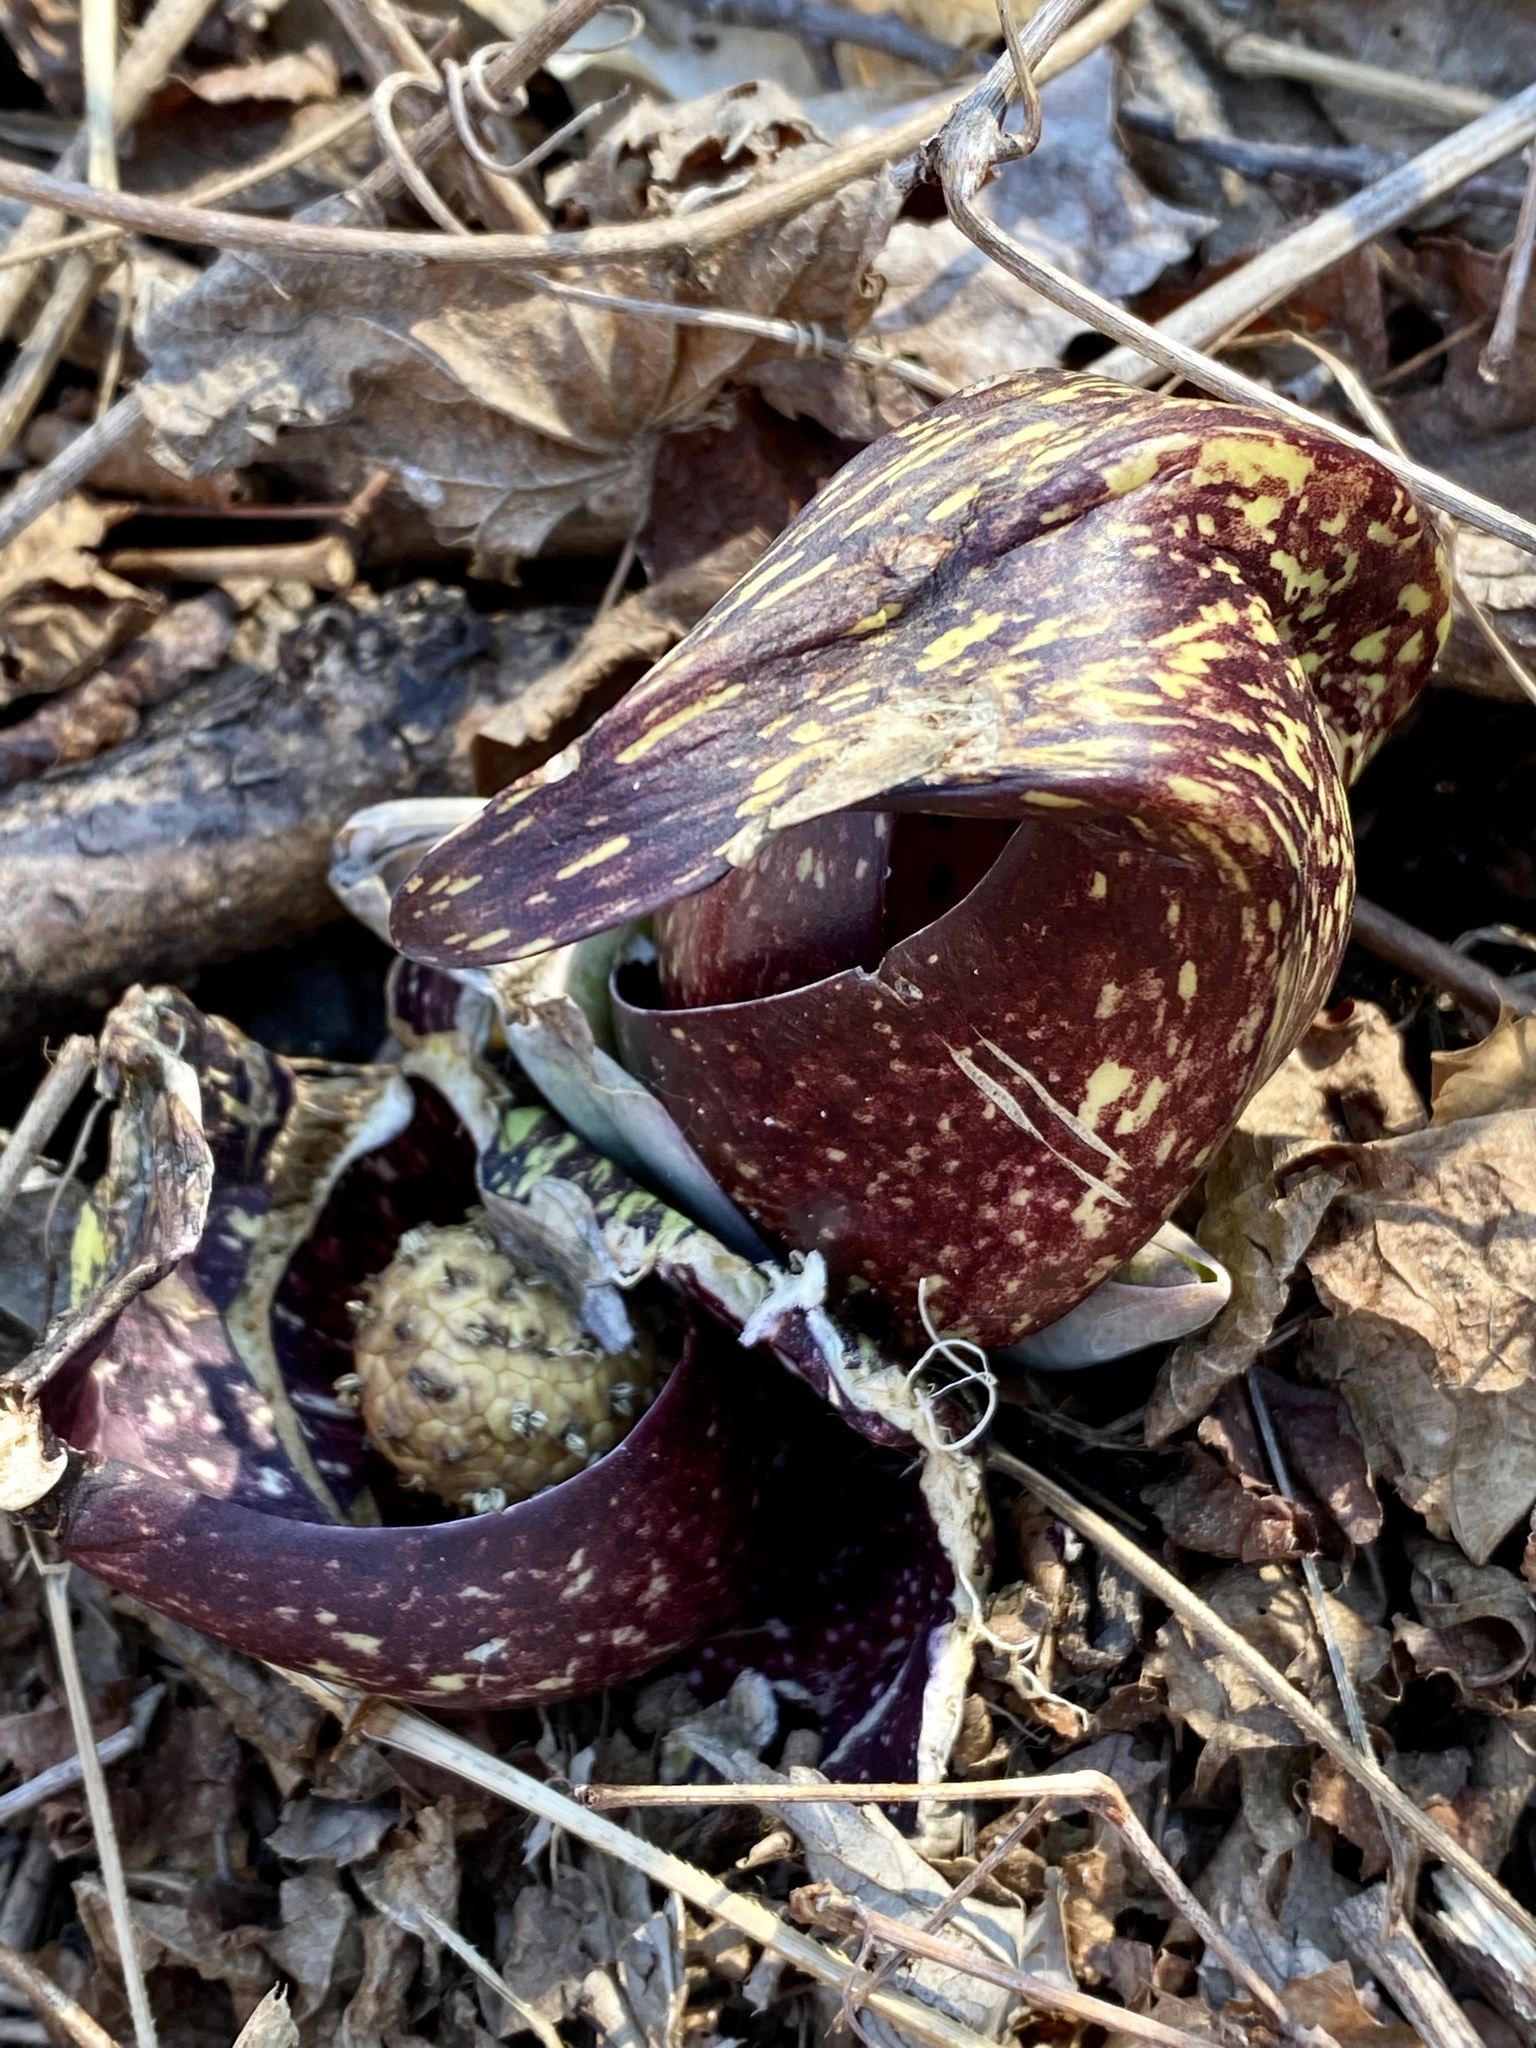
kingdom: Plantae
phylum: Tracheophyta
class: Liliopsida
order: Alismatales
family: Araceae
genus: Symplocarpus
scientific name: Symplocarpus foetidus
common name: Eastern skunk cabbage
